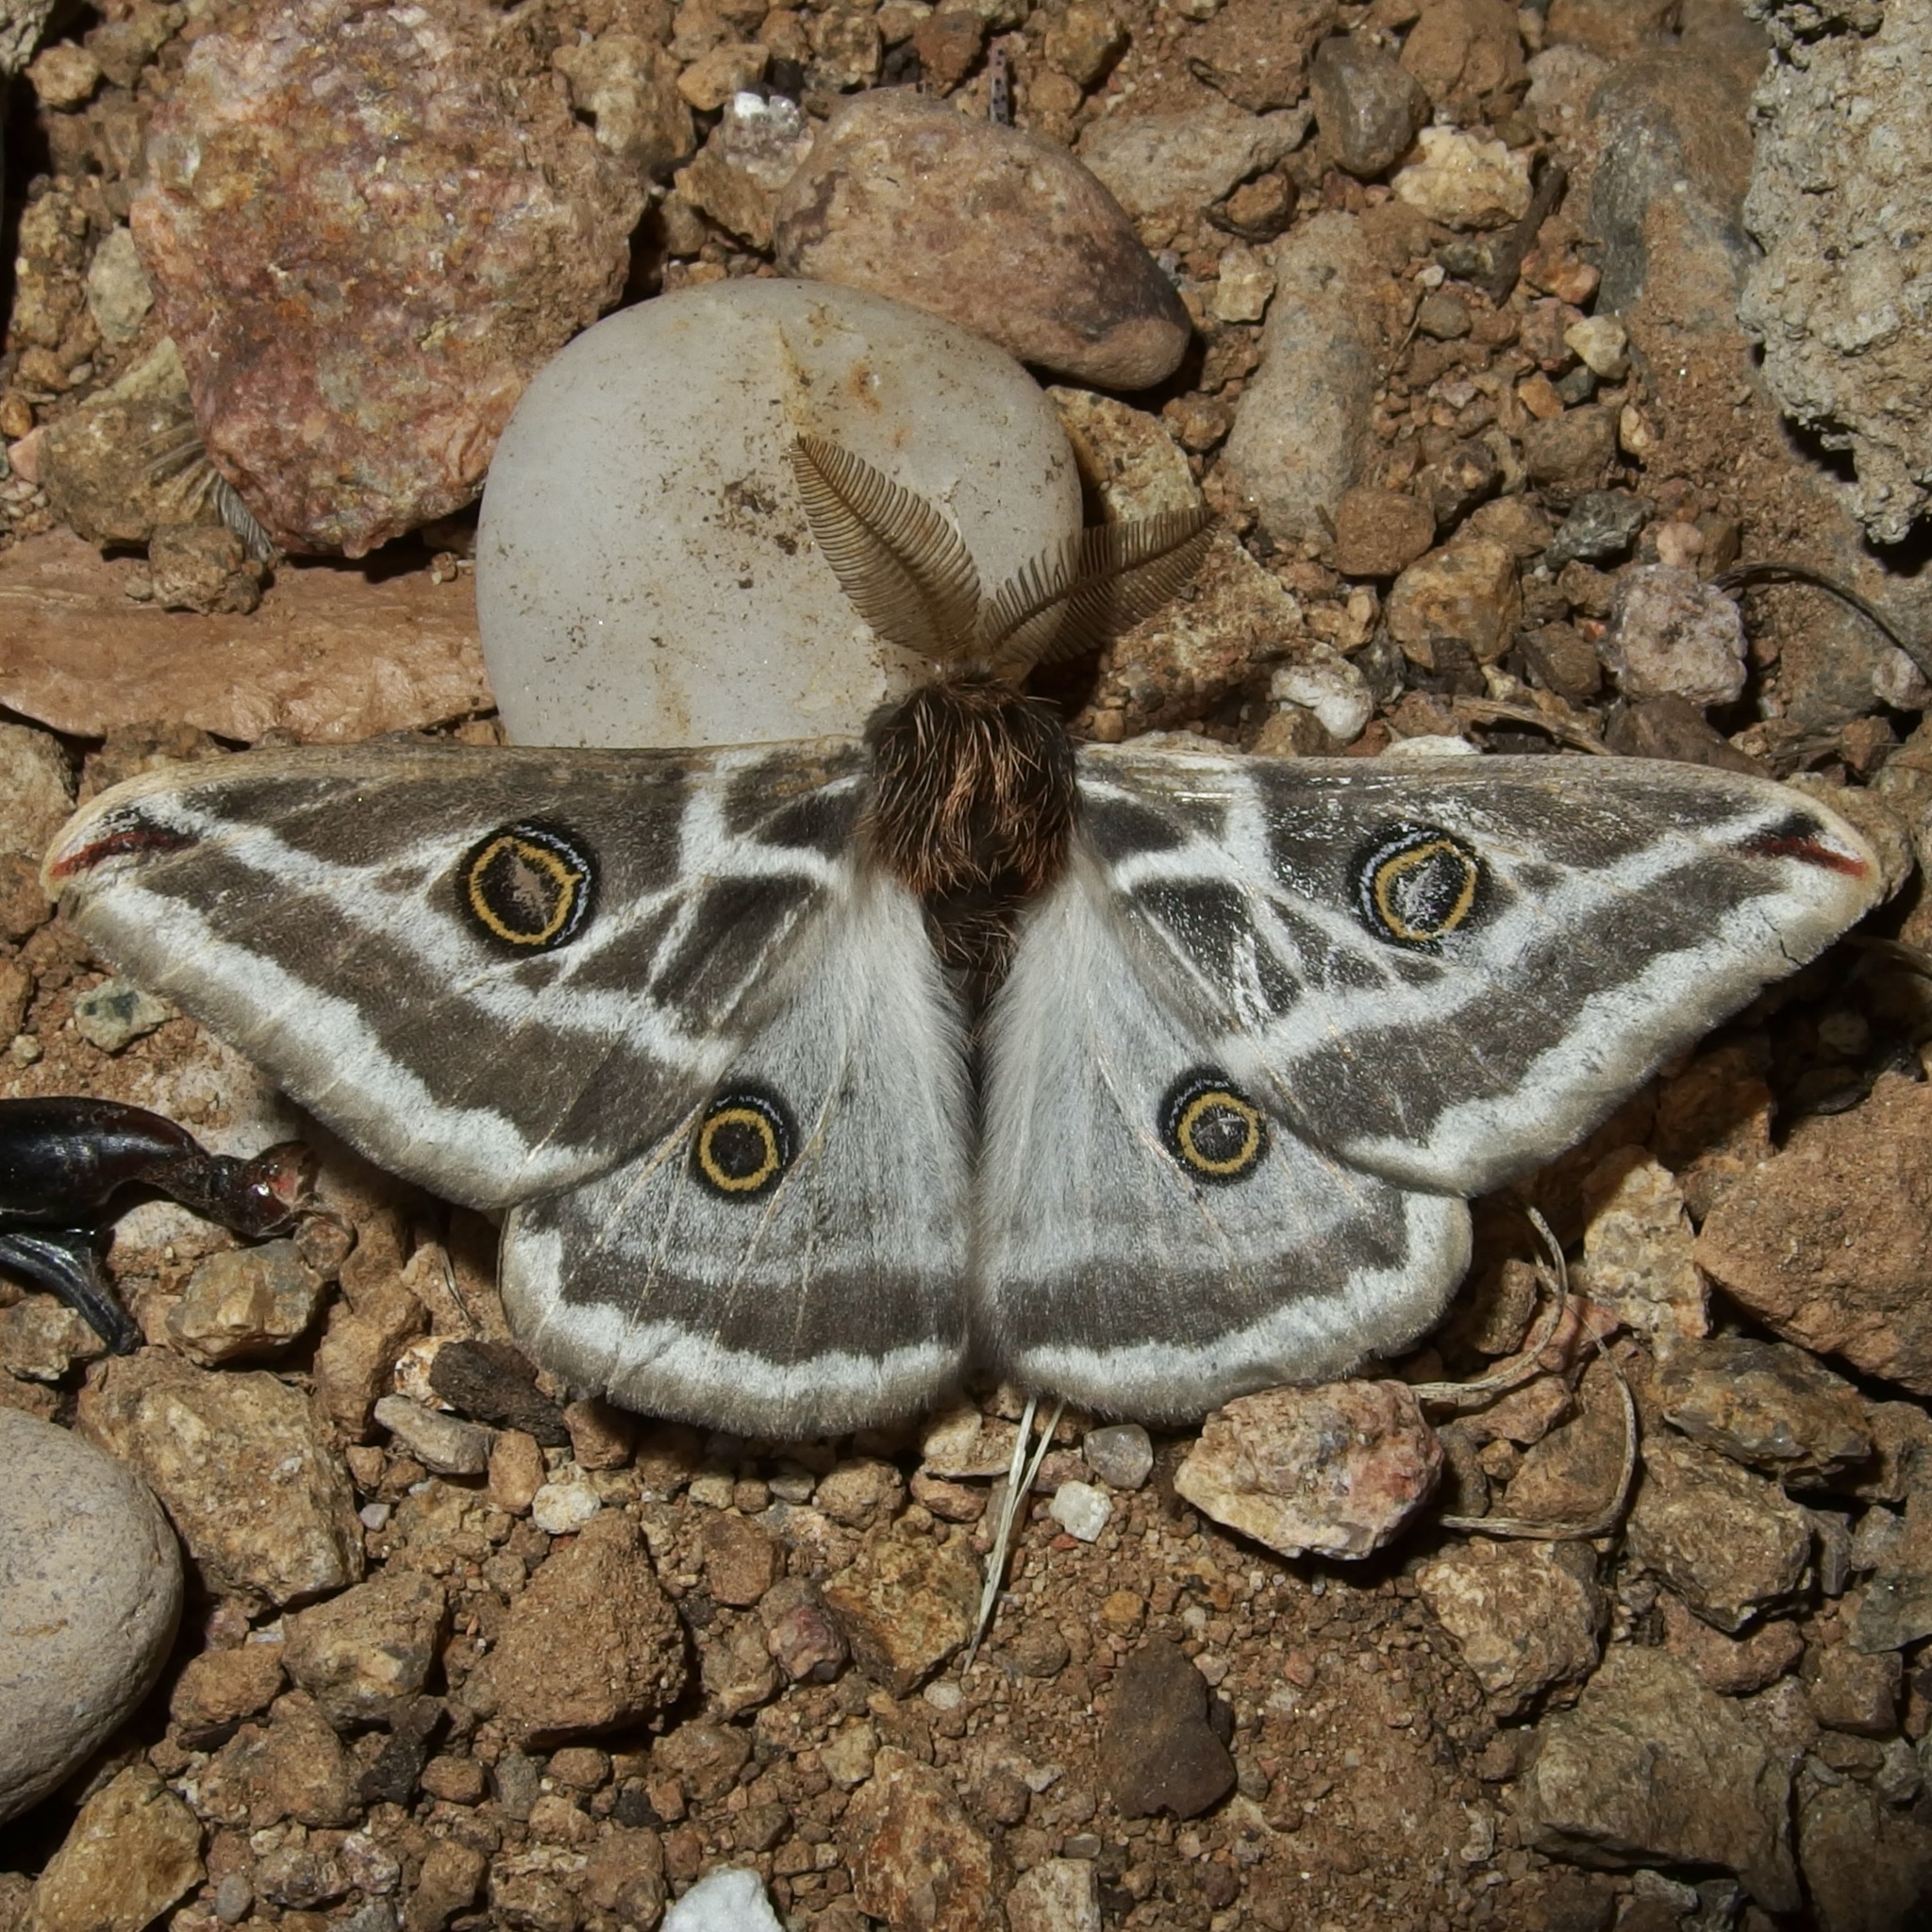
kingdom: Animalia
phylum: Arthropoda
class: Insecta
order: Lepidoptera
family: Saturniidae
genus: Saturnia
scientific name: Saturnia anona
